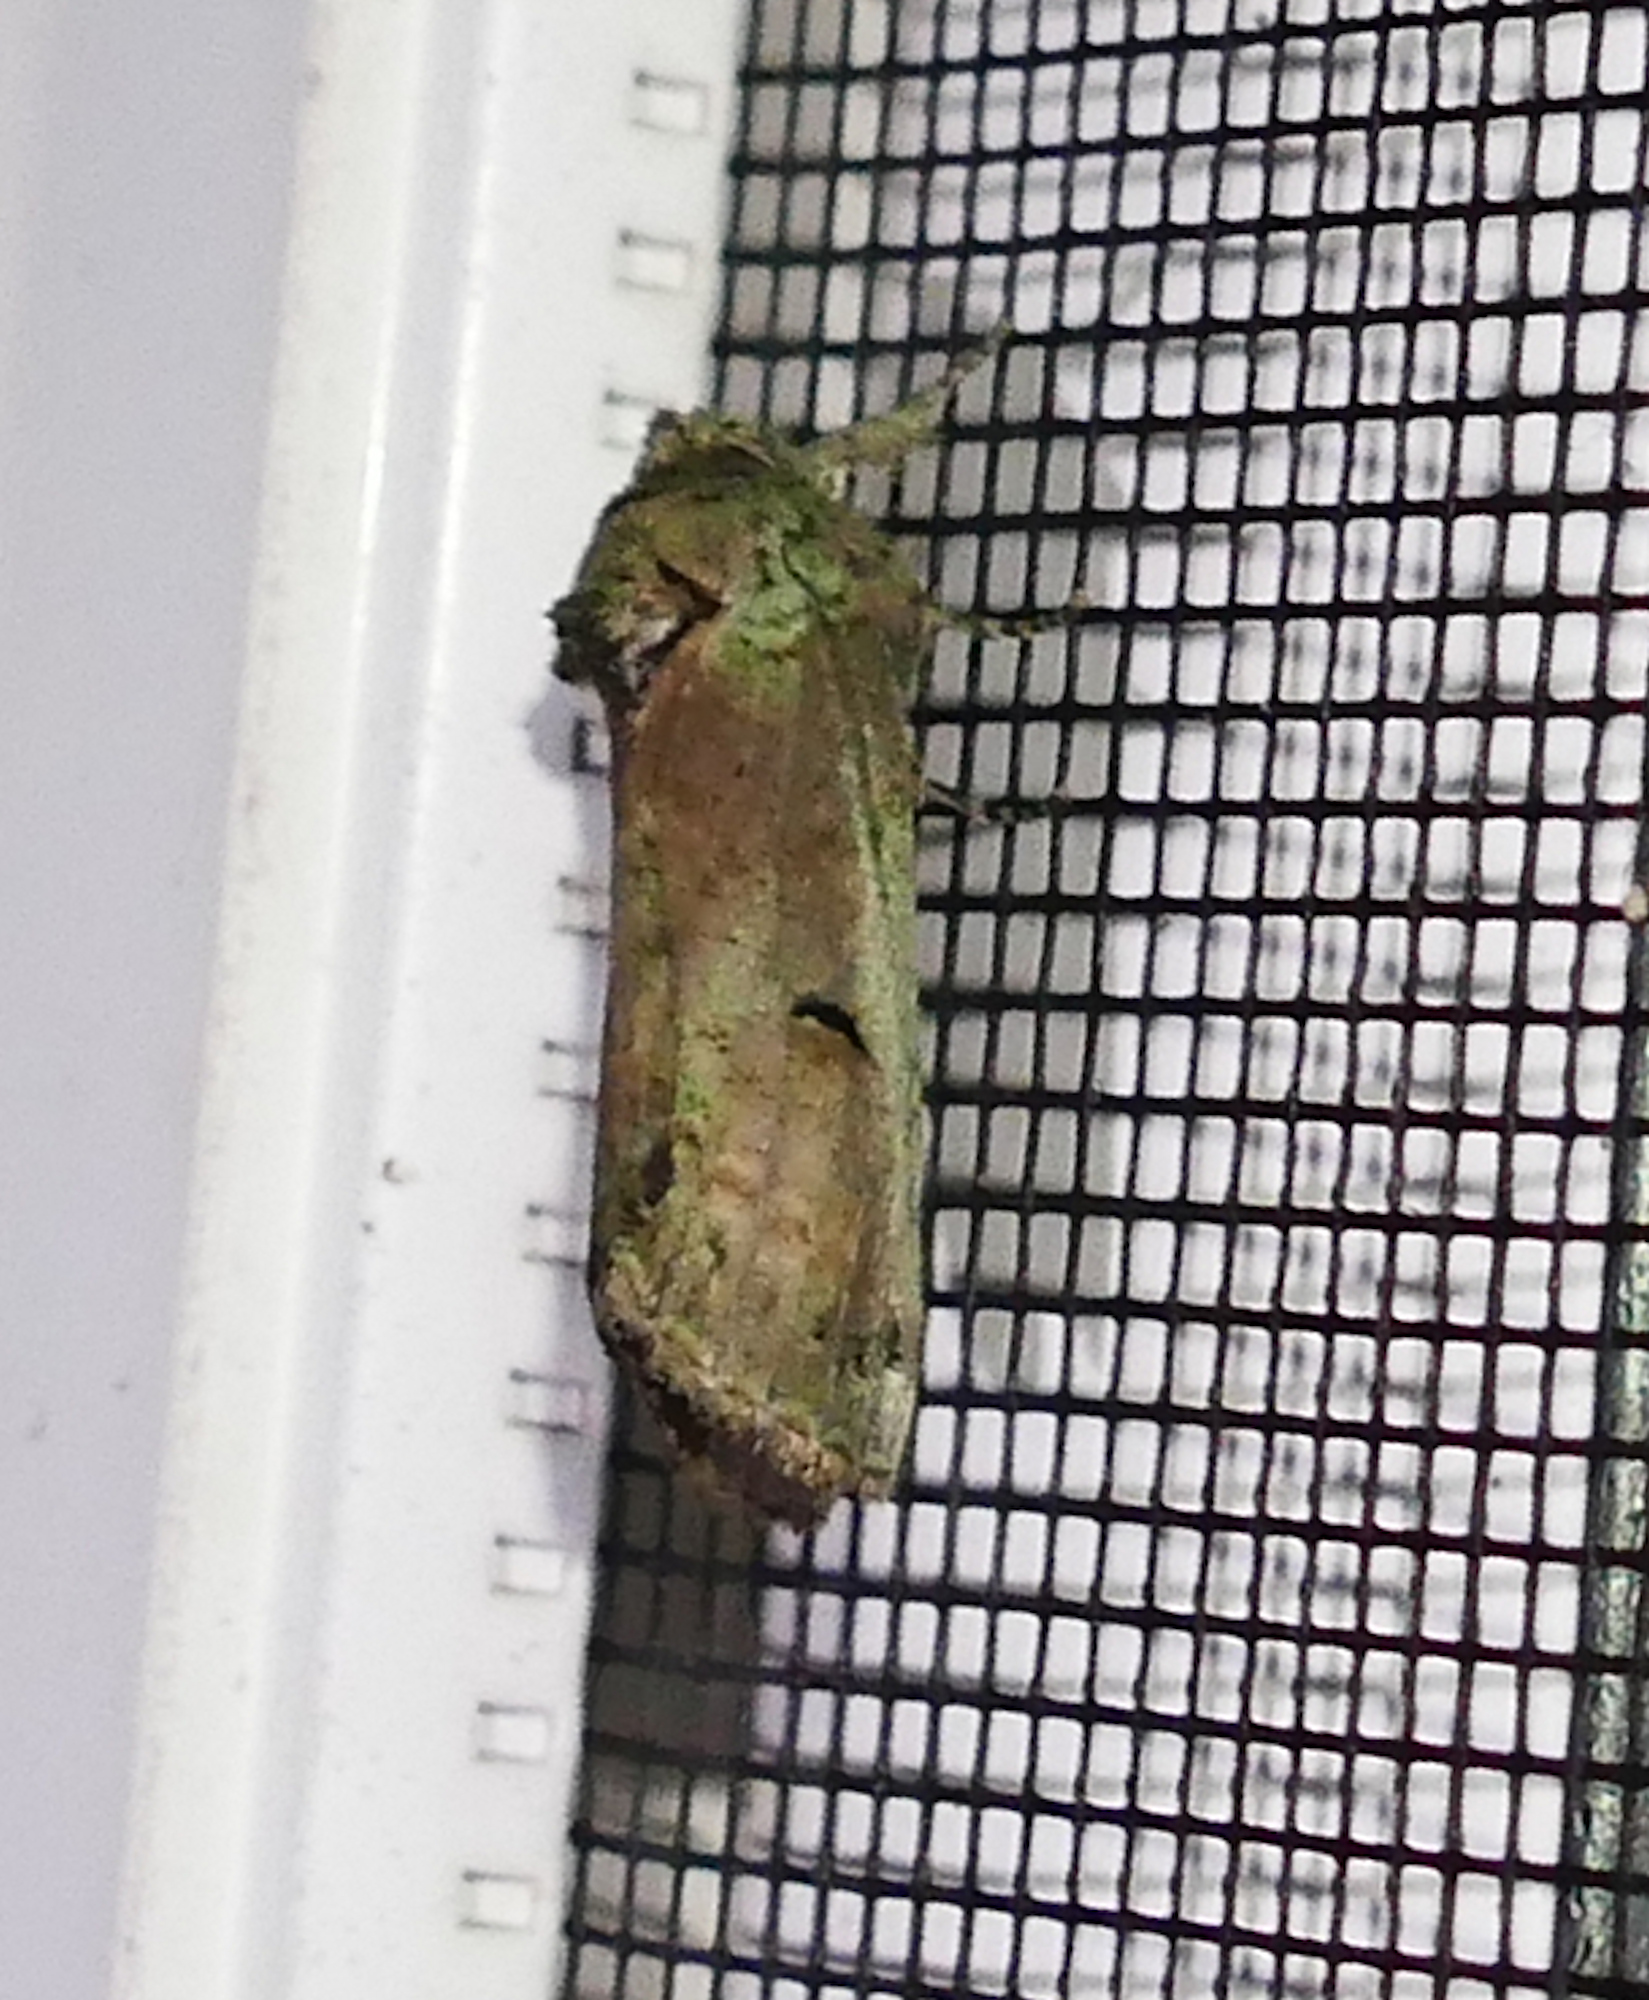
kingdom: Animalia
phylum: Arthropoda
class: Insecta
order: Lepidoptera
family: Notodontidae
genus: Schizura
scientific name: Schizura
